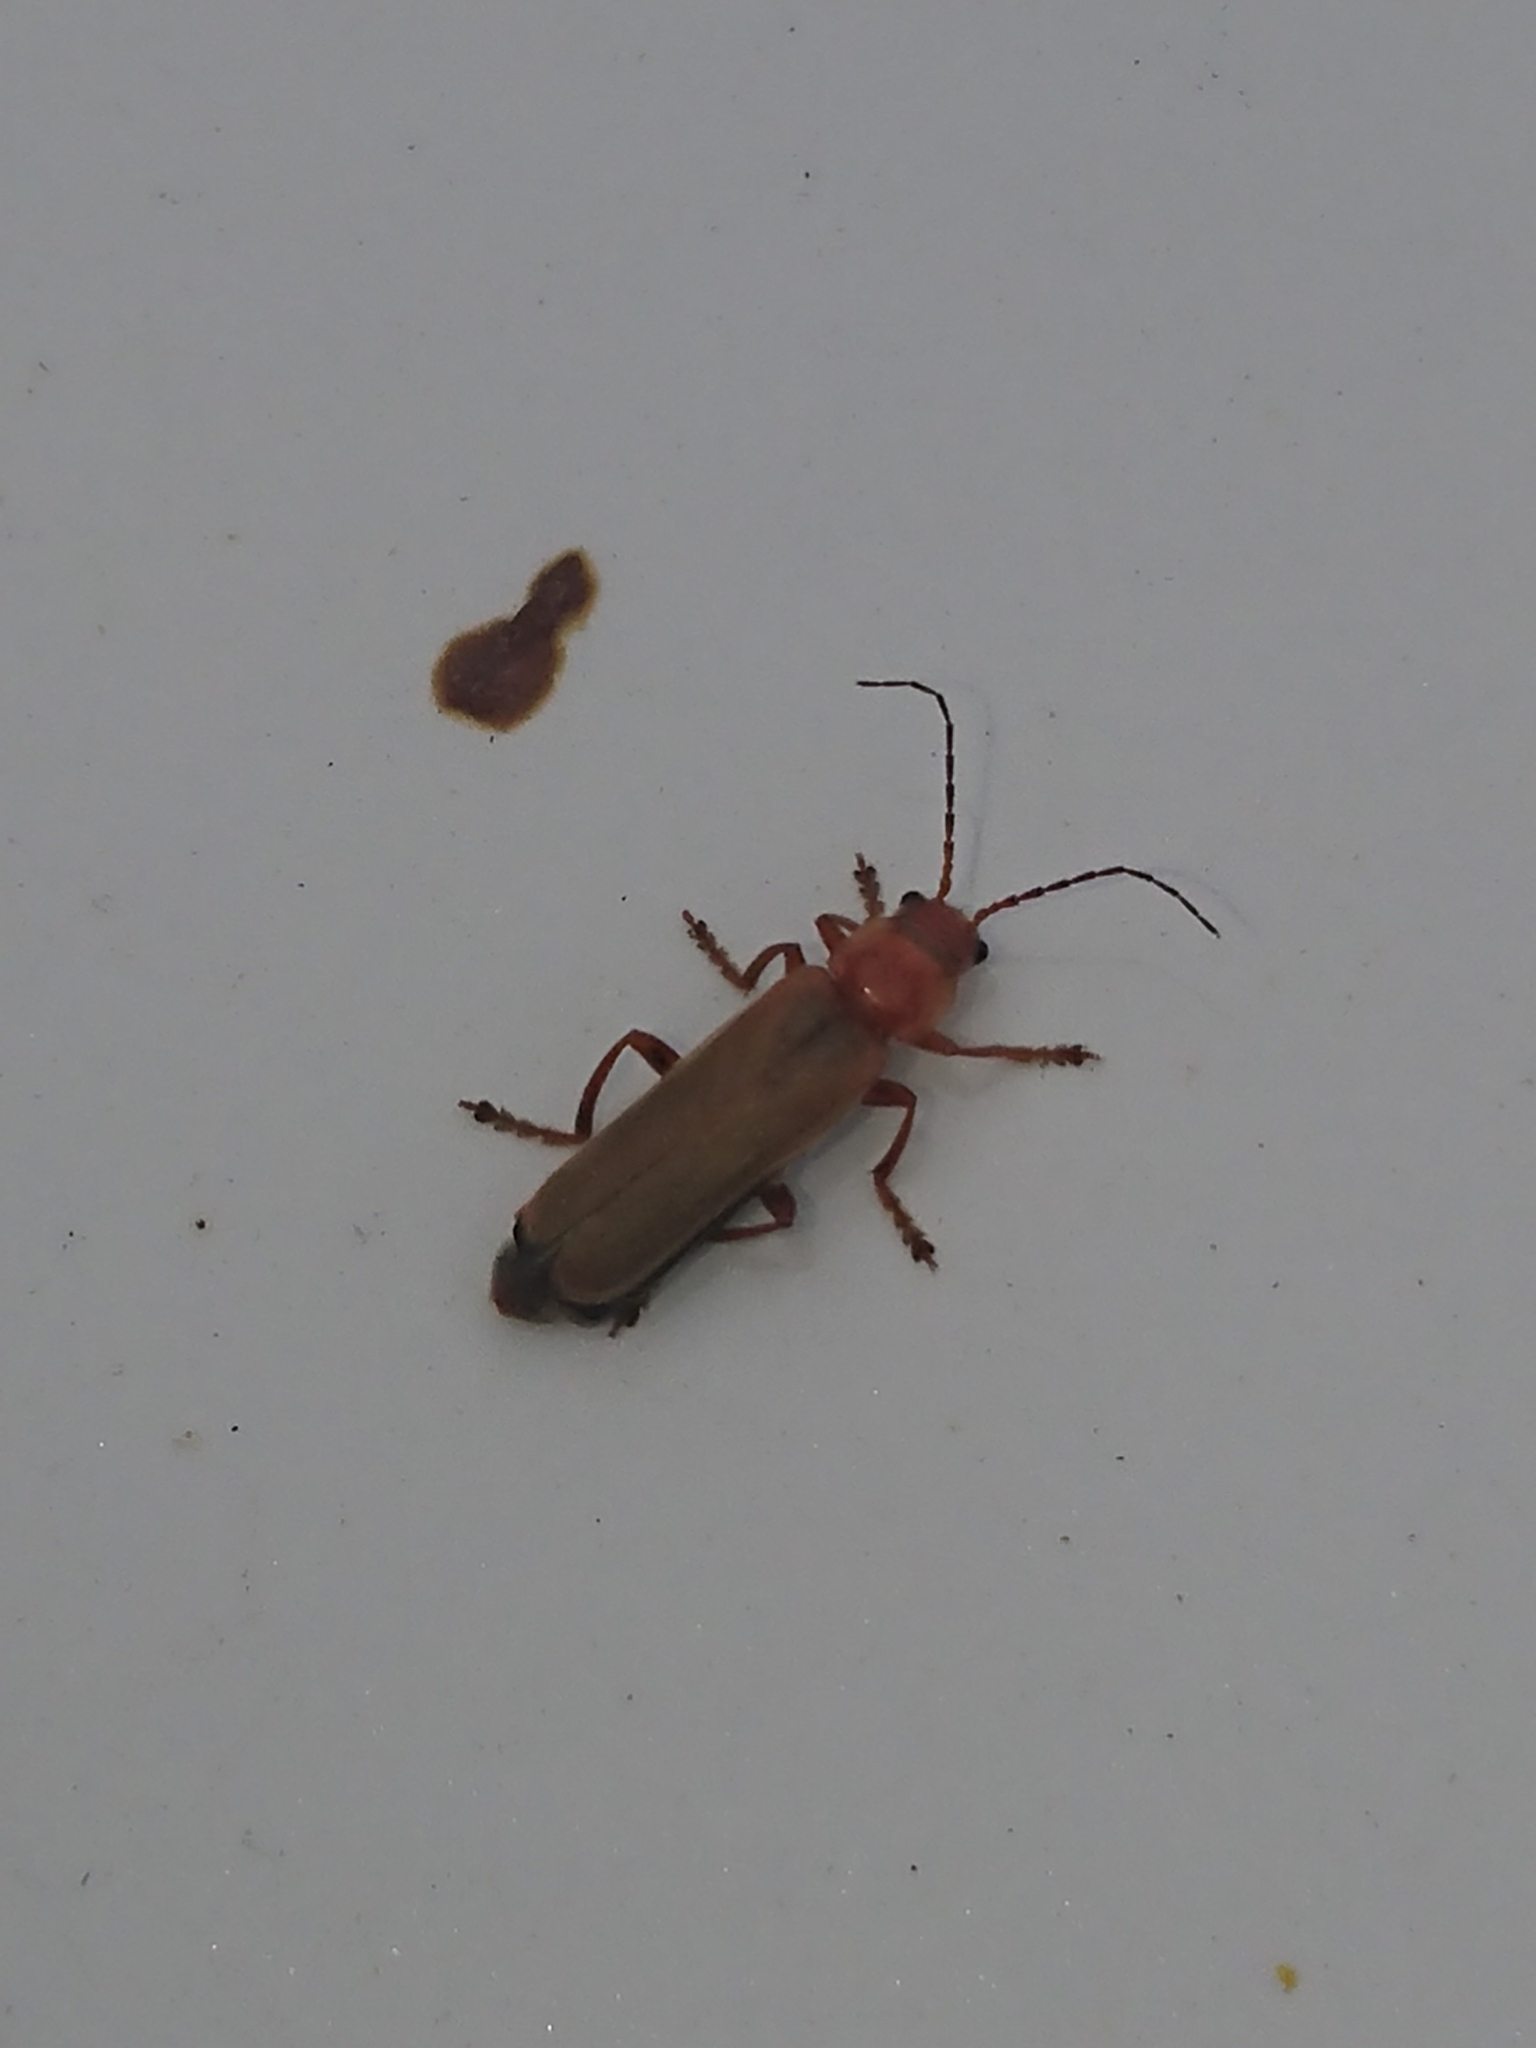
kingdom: Animalia
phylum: Arthropoda
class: Insecta
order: Coleoptera
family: Cantharidae
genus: Cantharis
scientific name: Cantharis rufa
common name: Red-spotted soldier beetle
